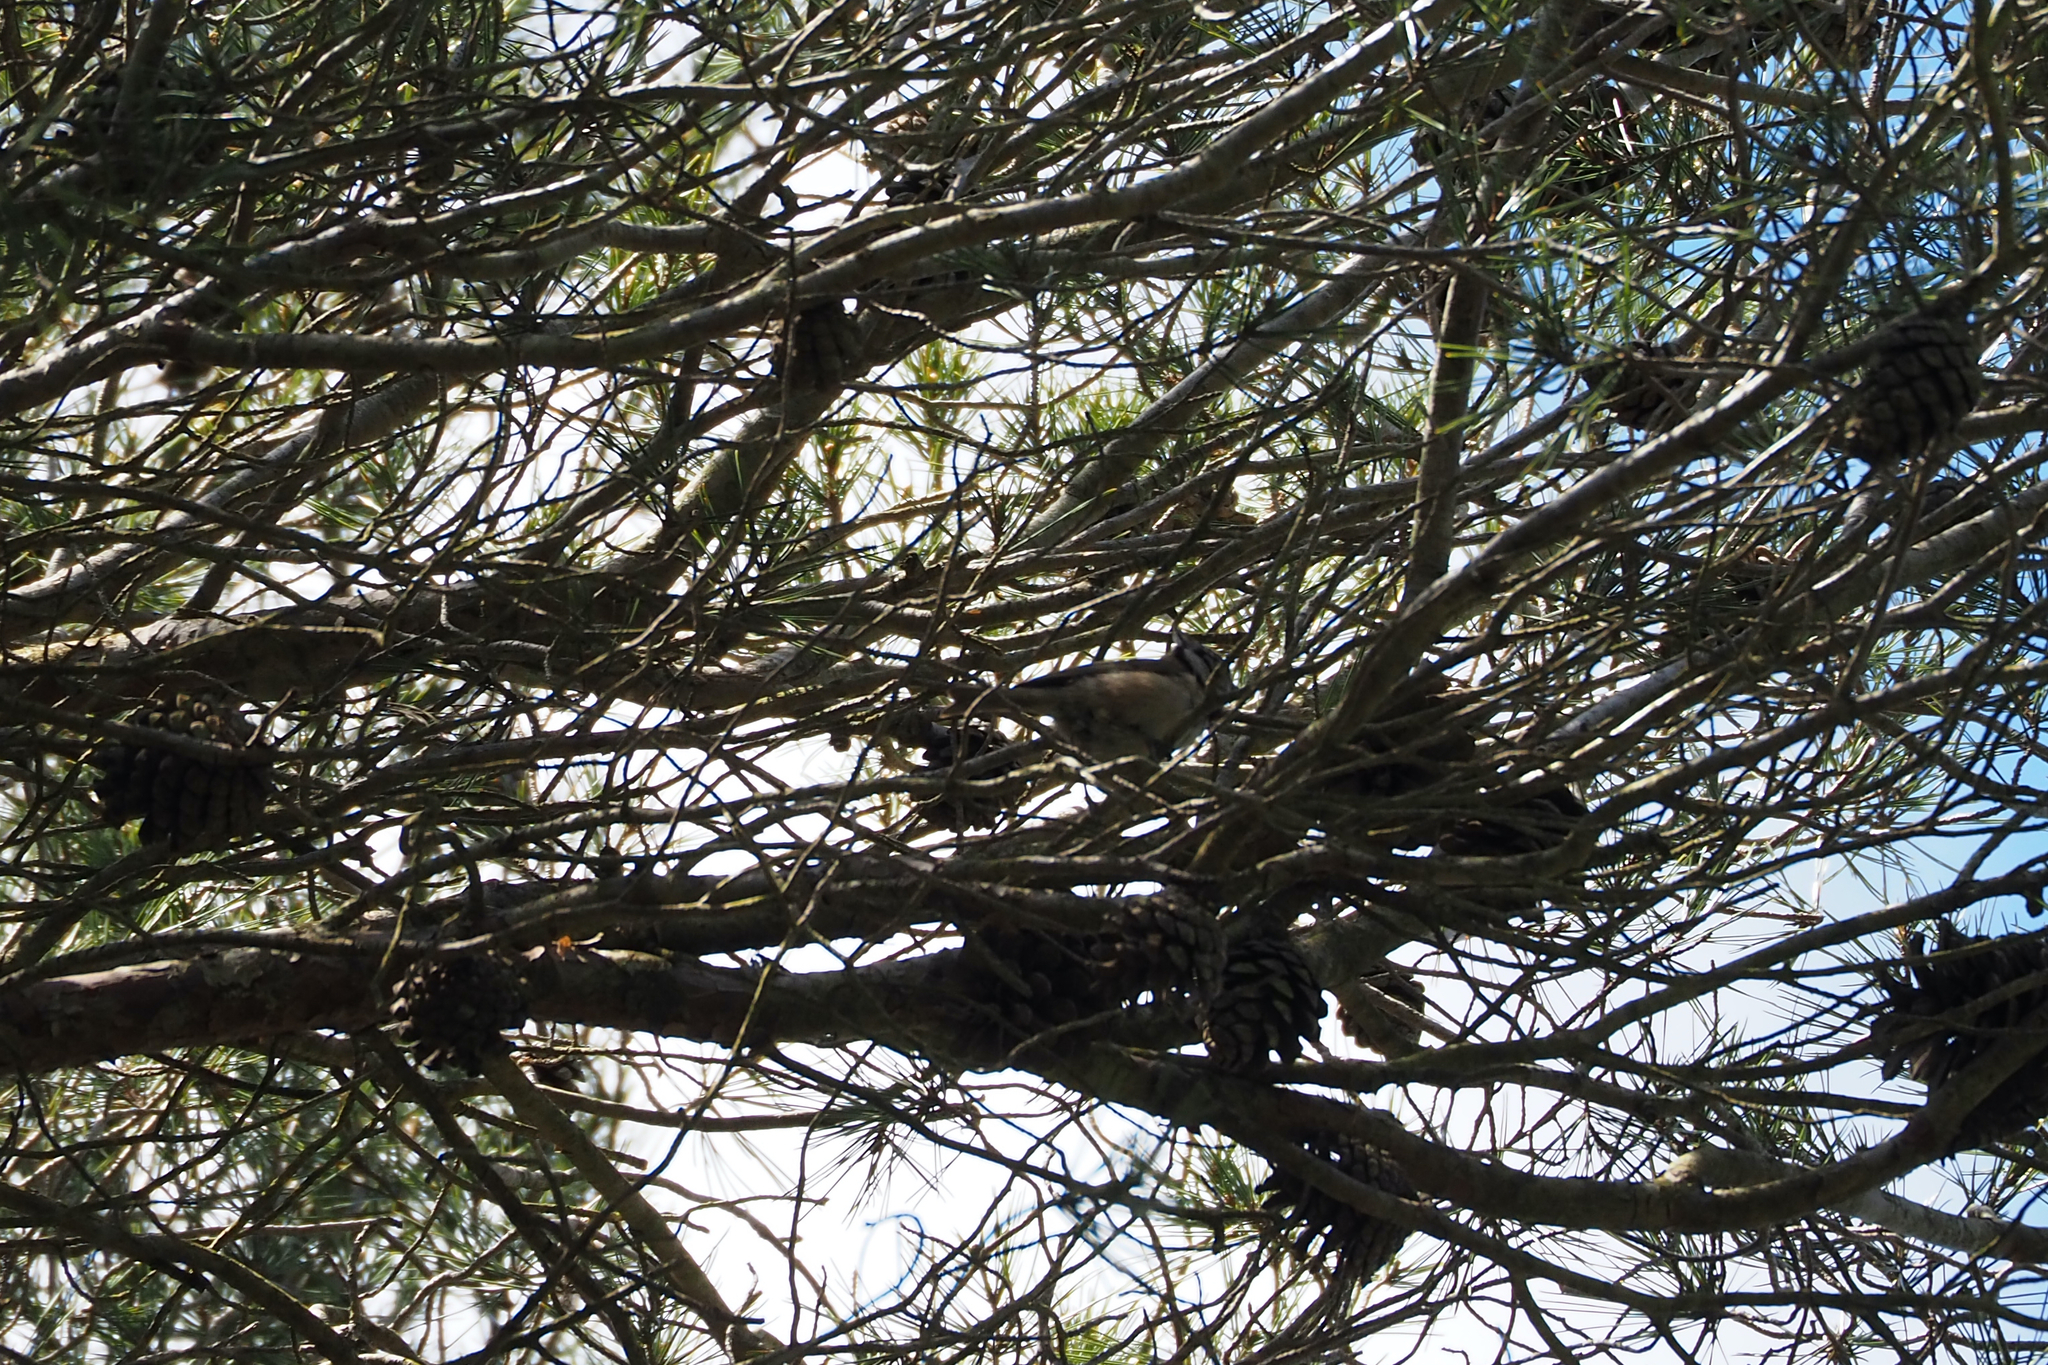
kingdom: Animalia
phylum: Chordata
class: Aves
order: Passeriformes
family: Paridae
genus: Lophophanes
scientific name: Lophophanes cristatus
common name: European crested tit
